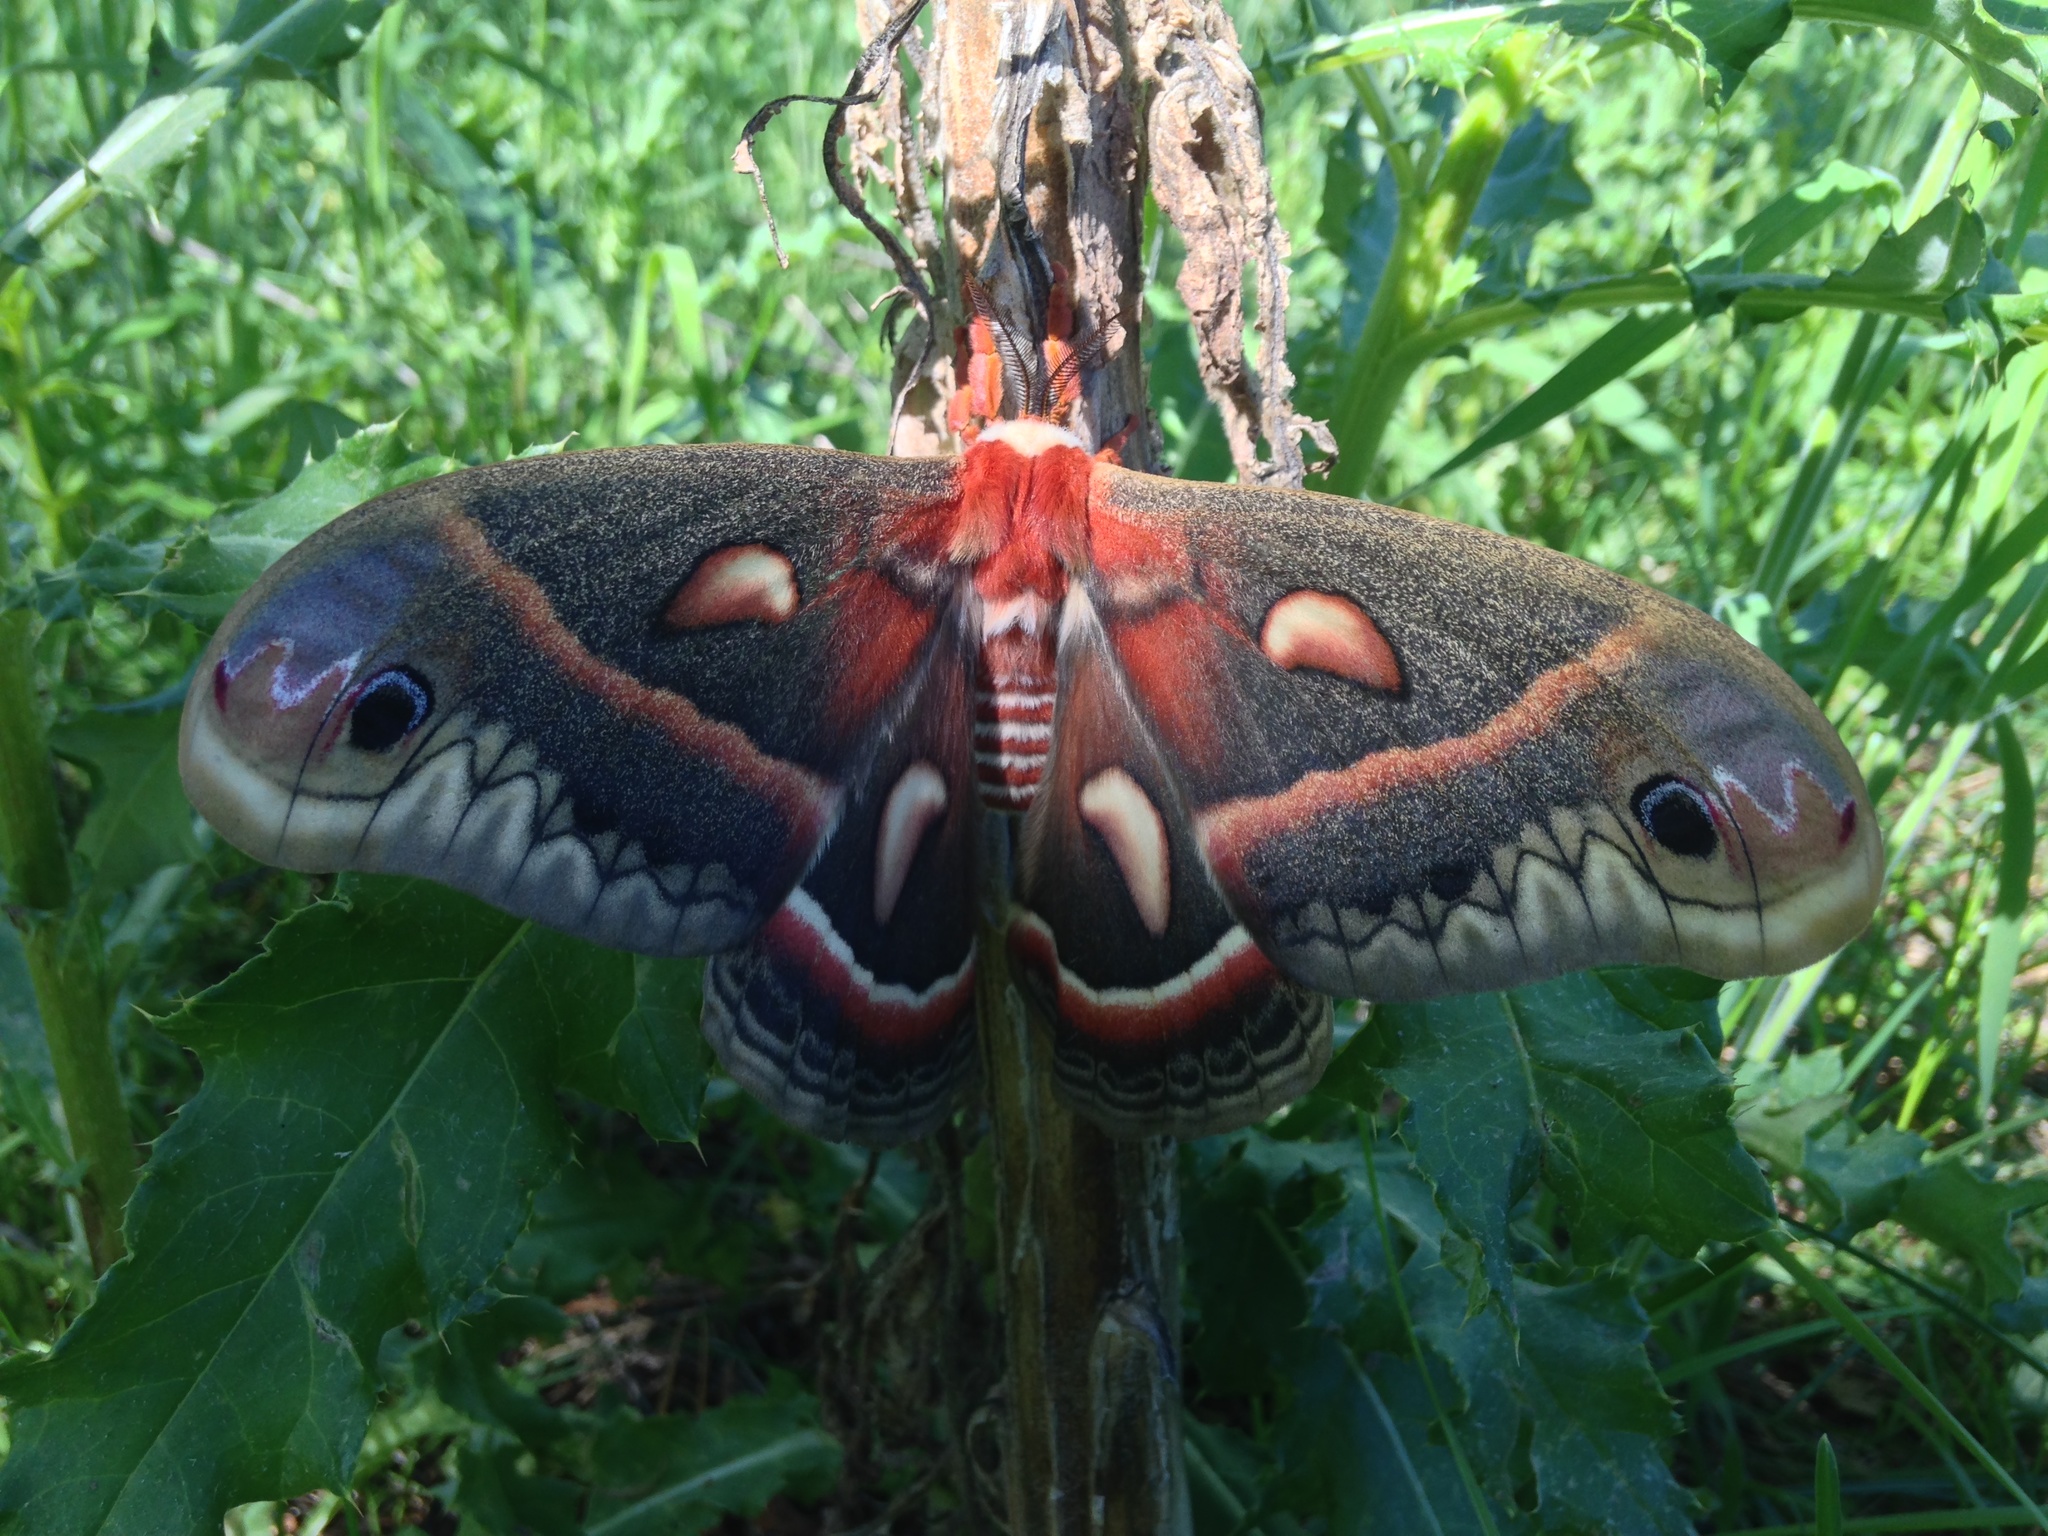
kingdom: Animalia
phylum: Arthropoda
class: Insecta
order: Lepidoptera
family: Saturniidae
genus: Hyalophora
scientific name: Hyalophora cecropia
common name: Cecropia silkmoth
